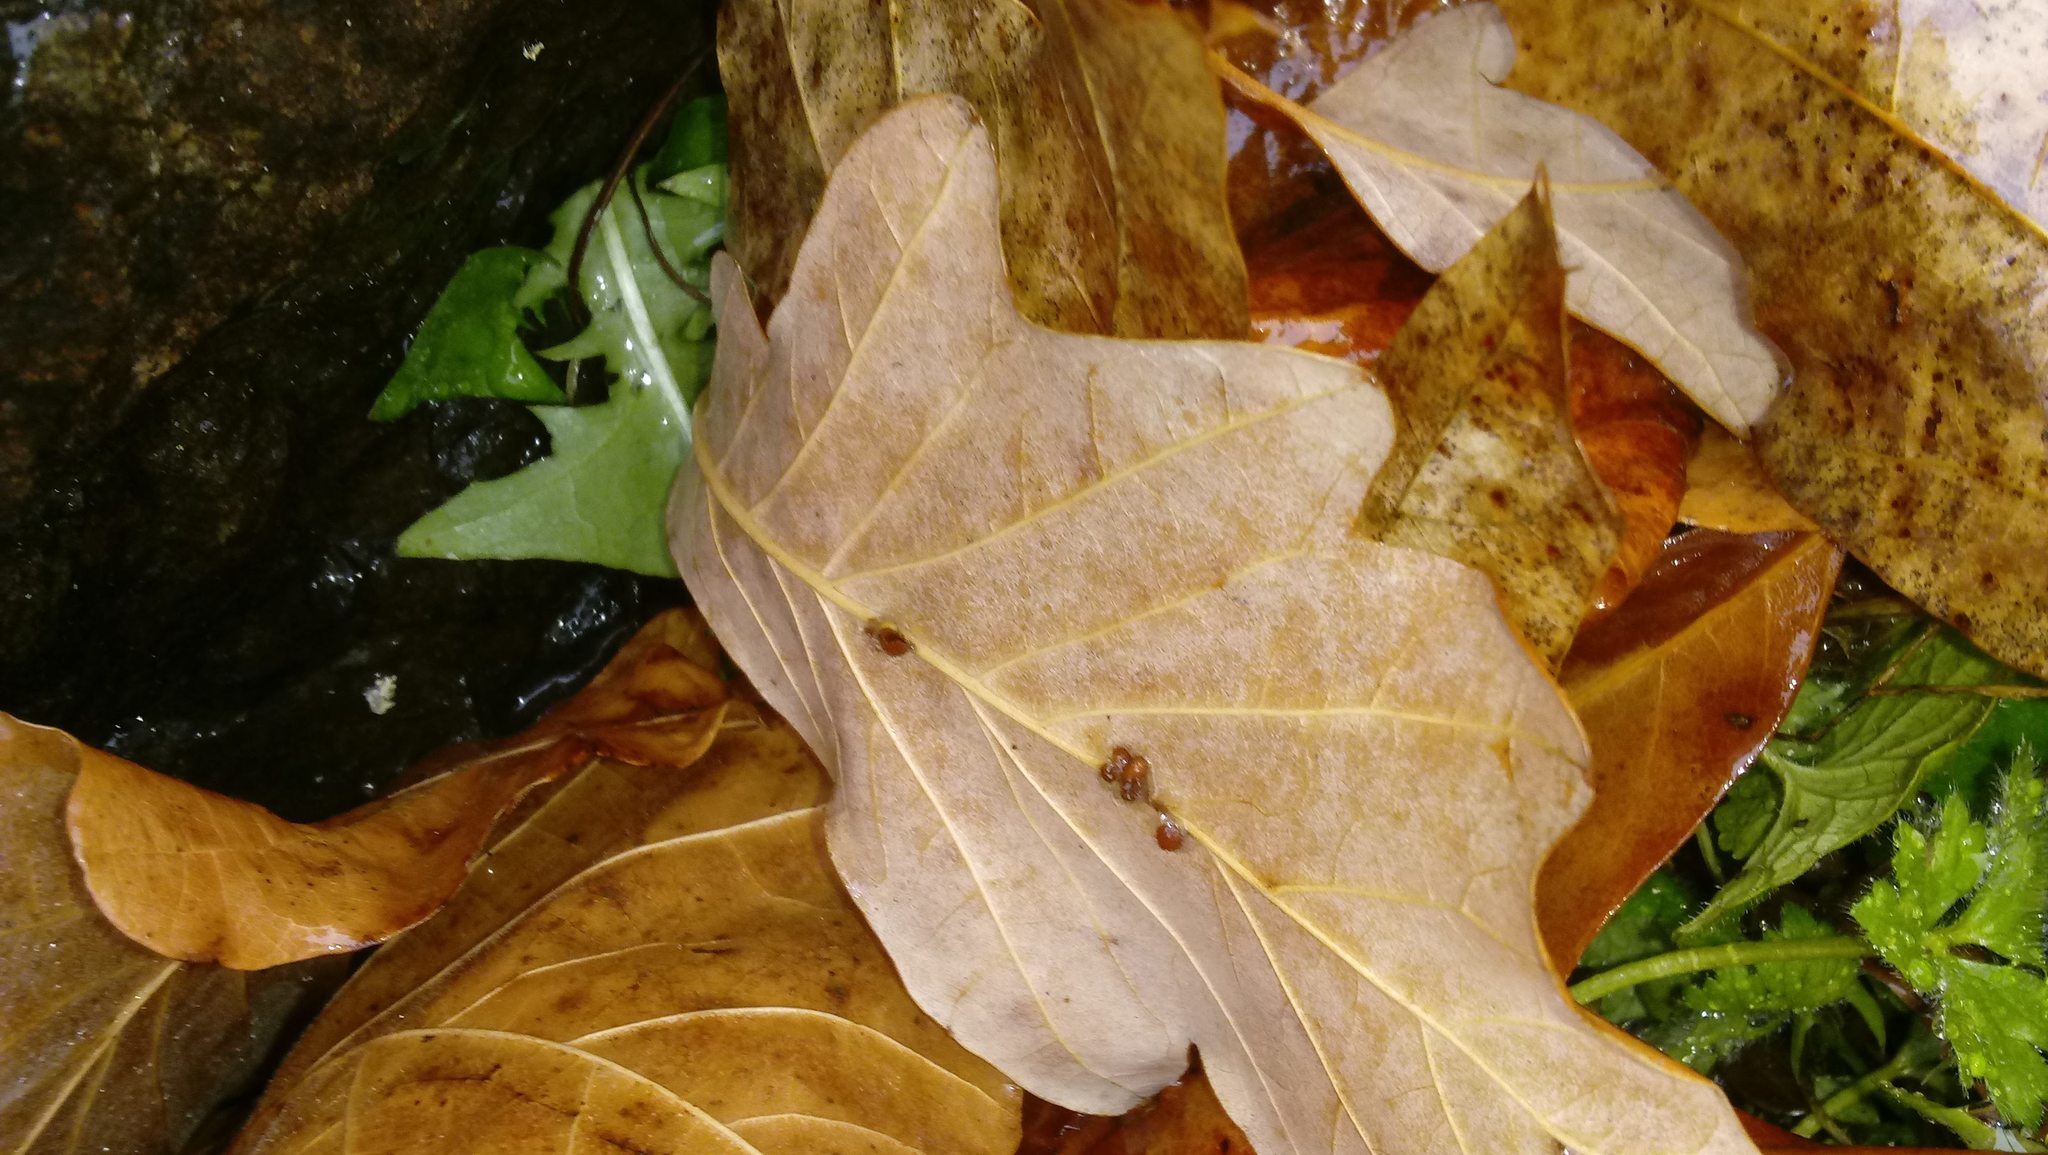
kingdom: Animalia
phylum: Arthropoda
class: Insecta
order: Hymenoptera
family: Cynipidae
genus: Andricus
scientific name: Andricus Druon ignotum
